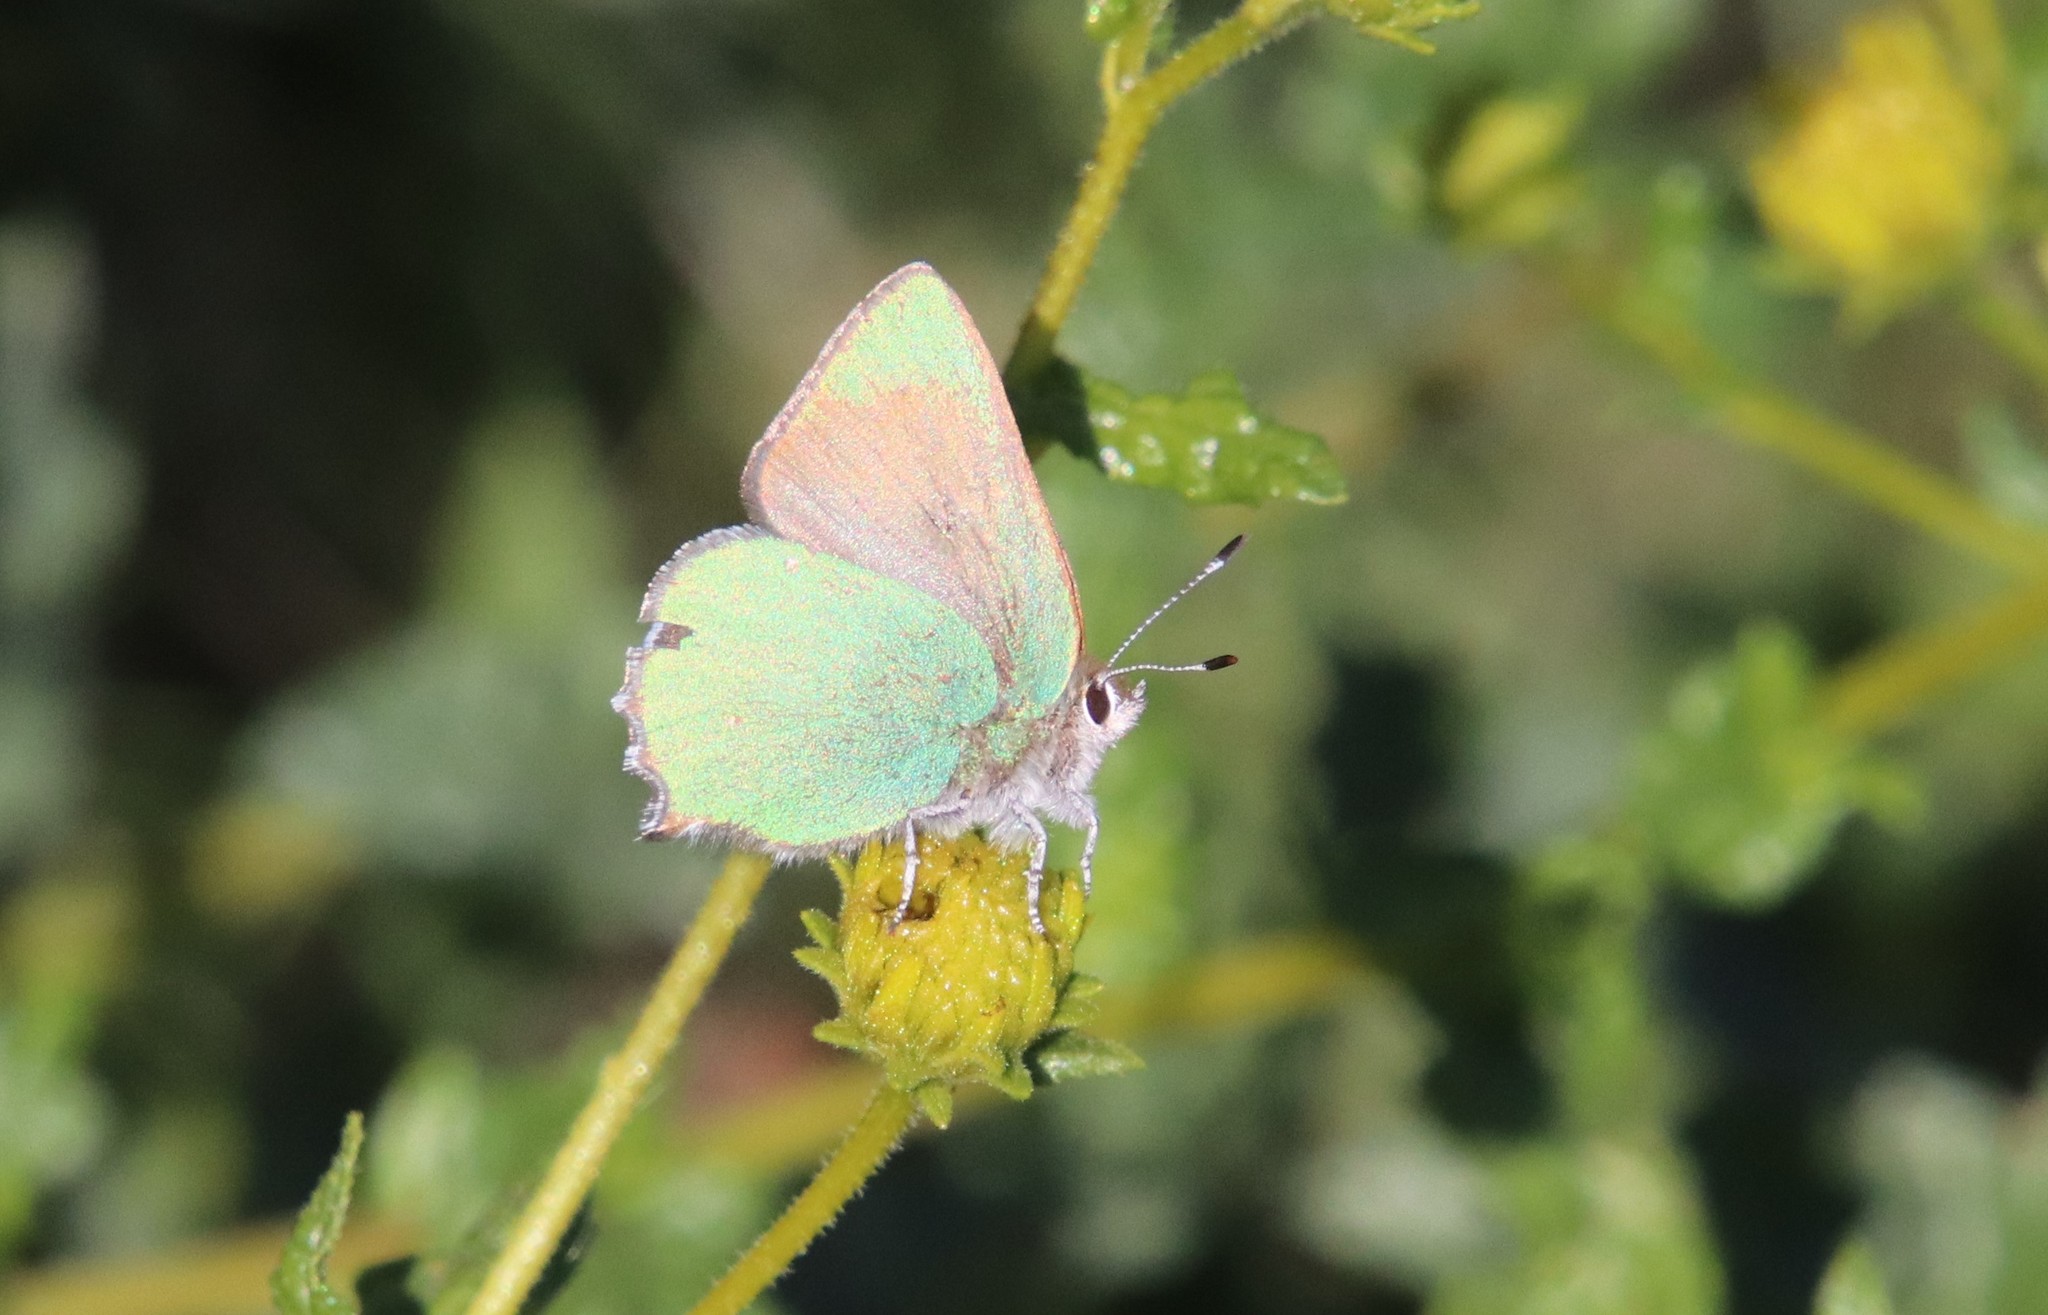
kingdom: Animalia
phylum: Arthropoda
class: Insecta
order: Lepidoptera
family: Lycaenidae
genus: Callophrys
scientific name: Callophrys dumetorum
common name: Bramble hairstreak
